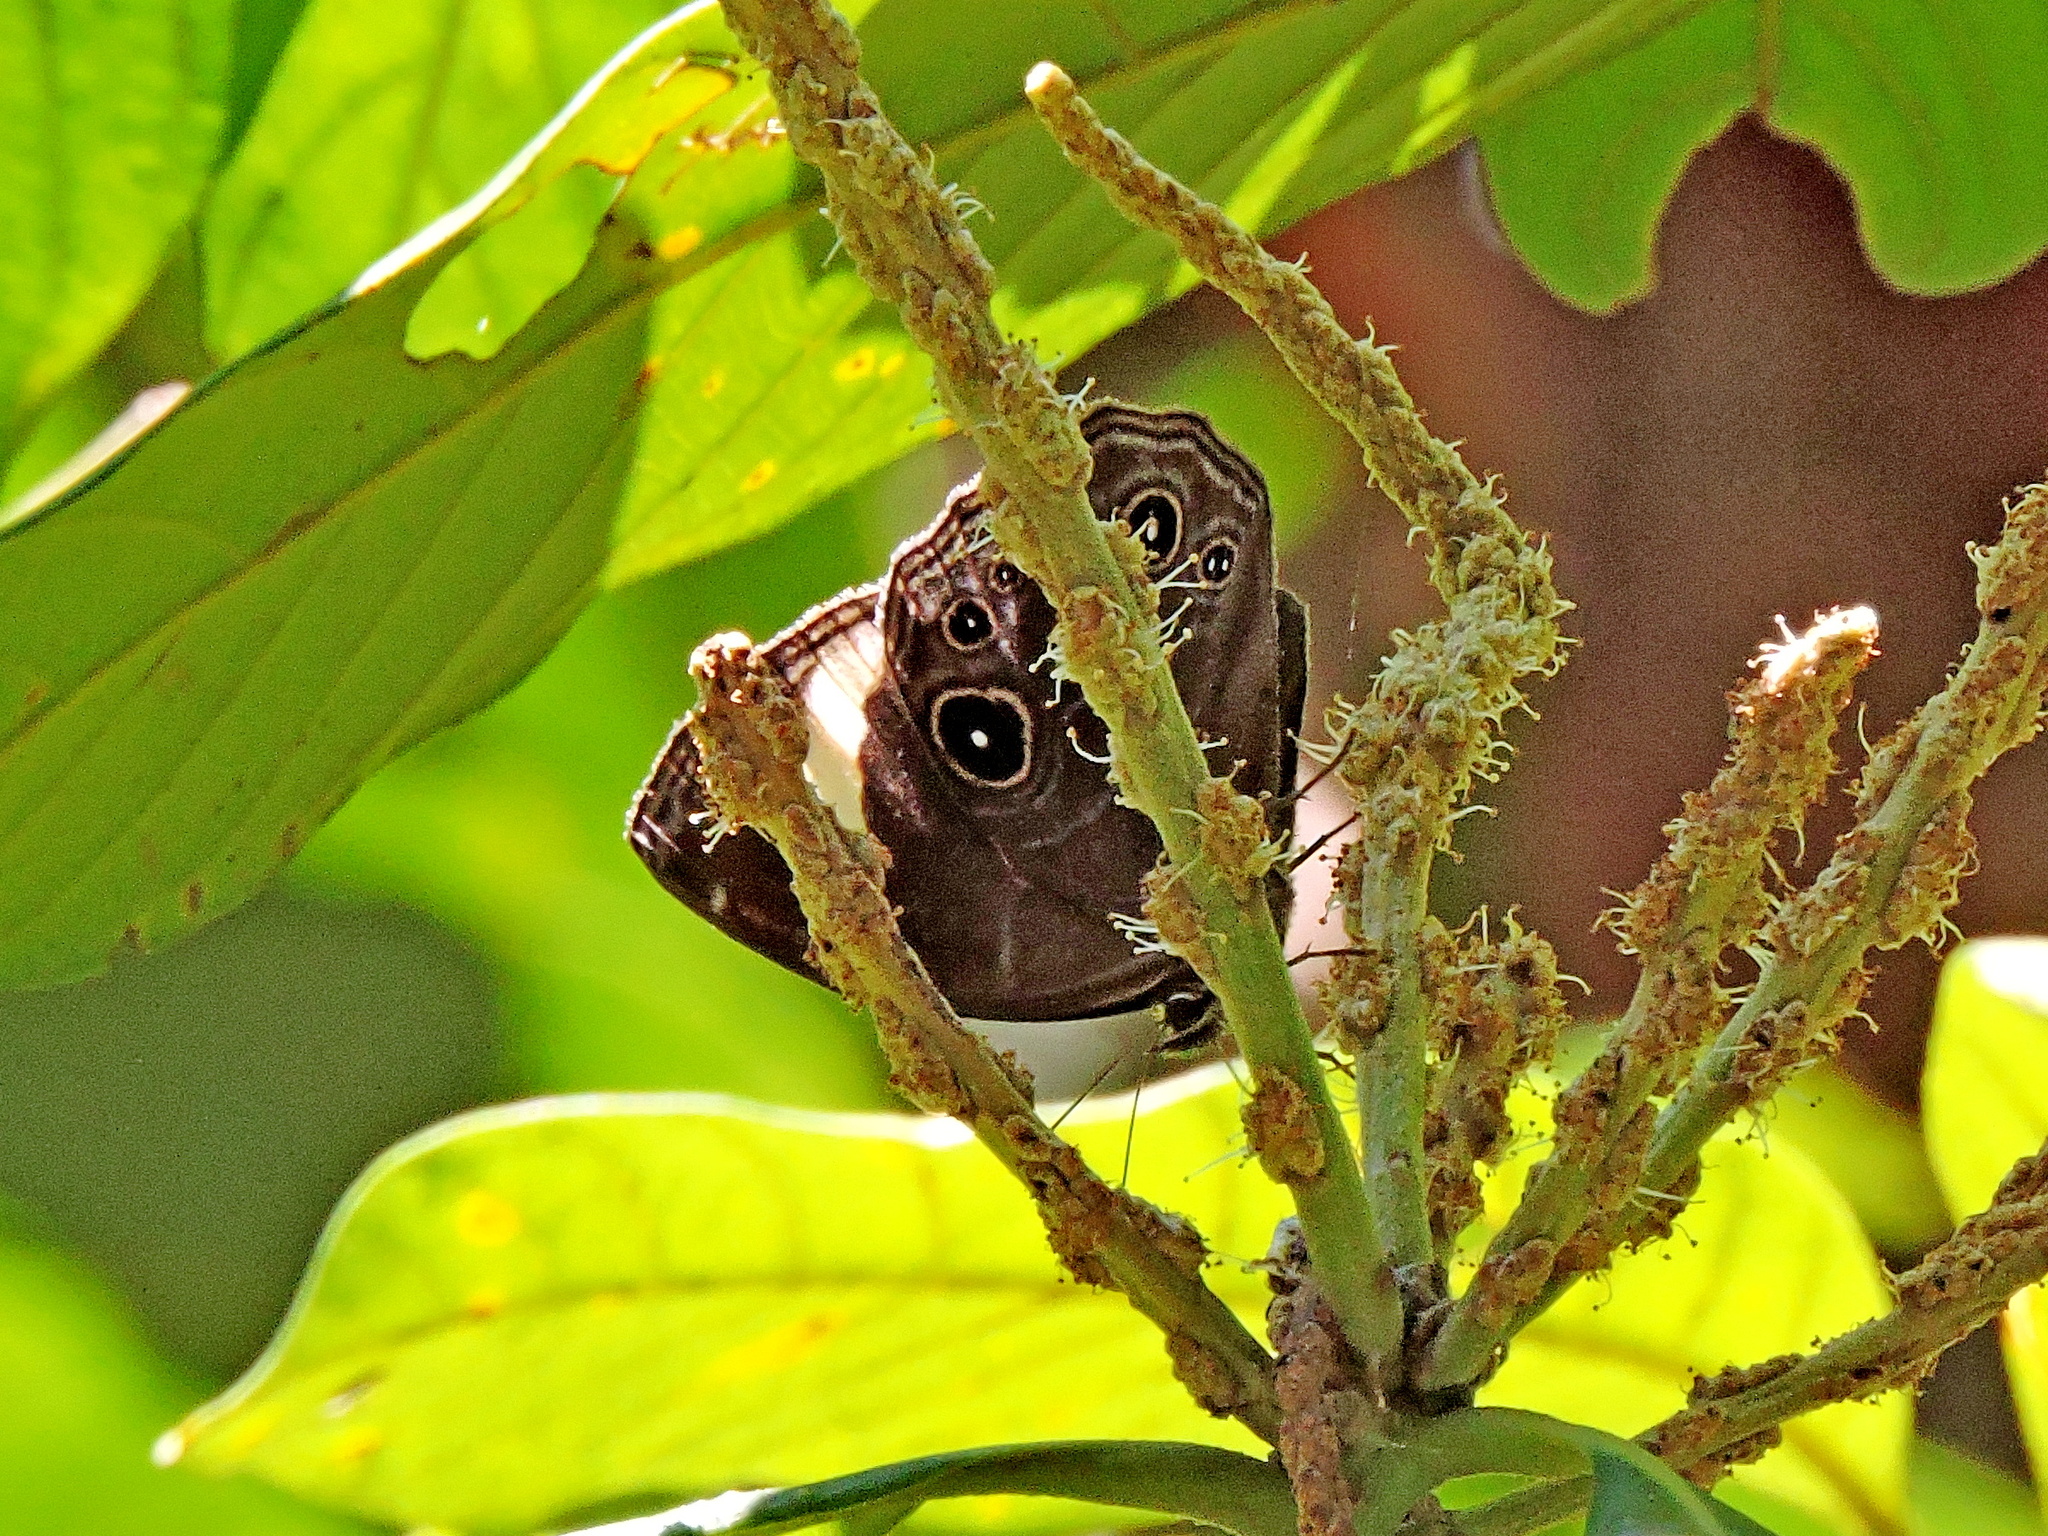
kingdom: Animalia
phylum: Arthropoda
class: Insecta
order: Lepidoptera
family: Nymphalidae
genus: Lethe
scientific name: Lethe verma
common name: Straight-banded treebrown
